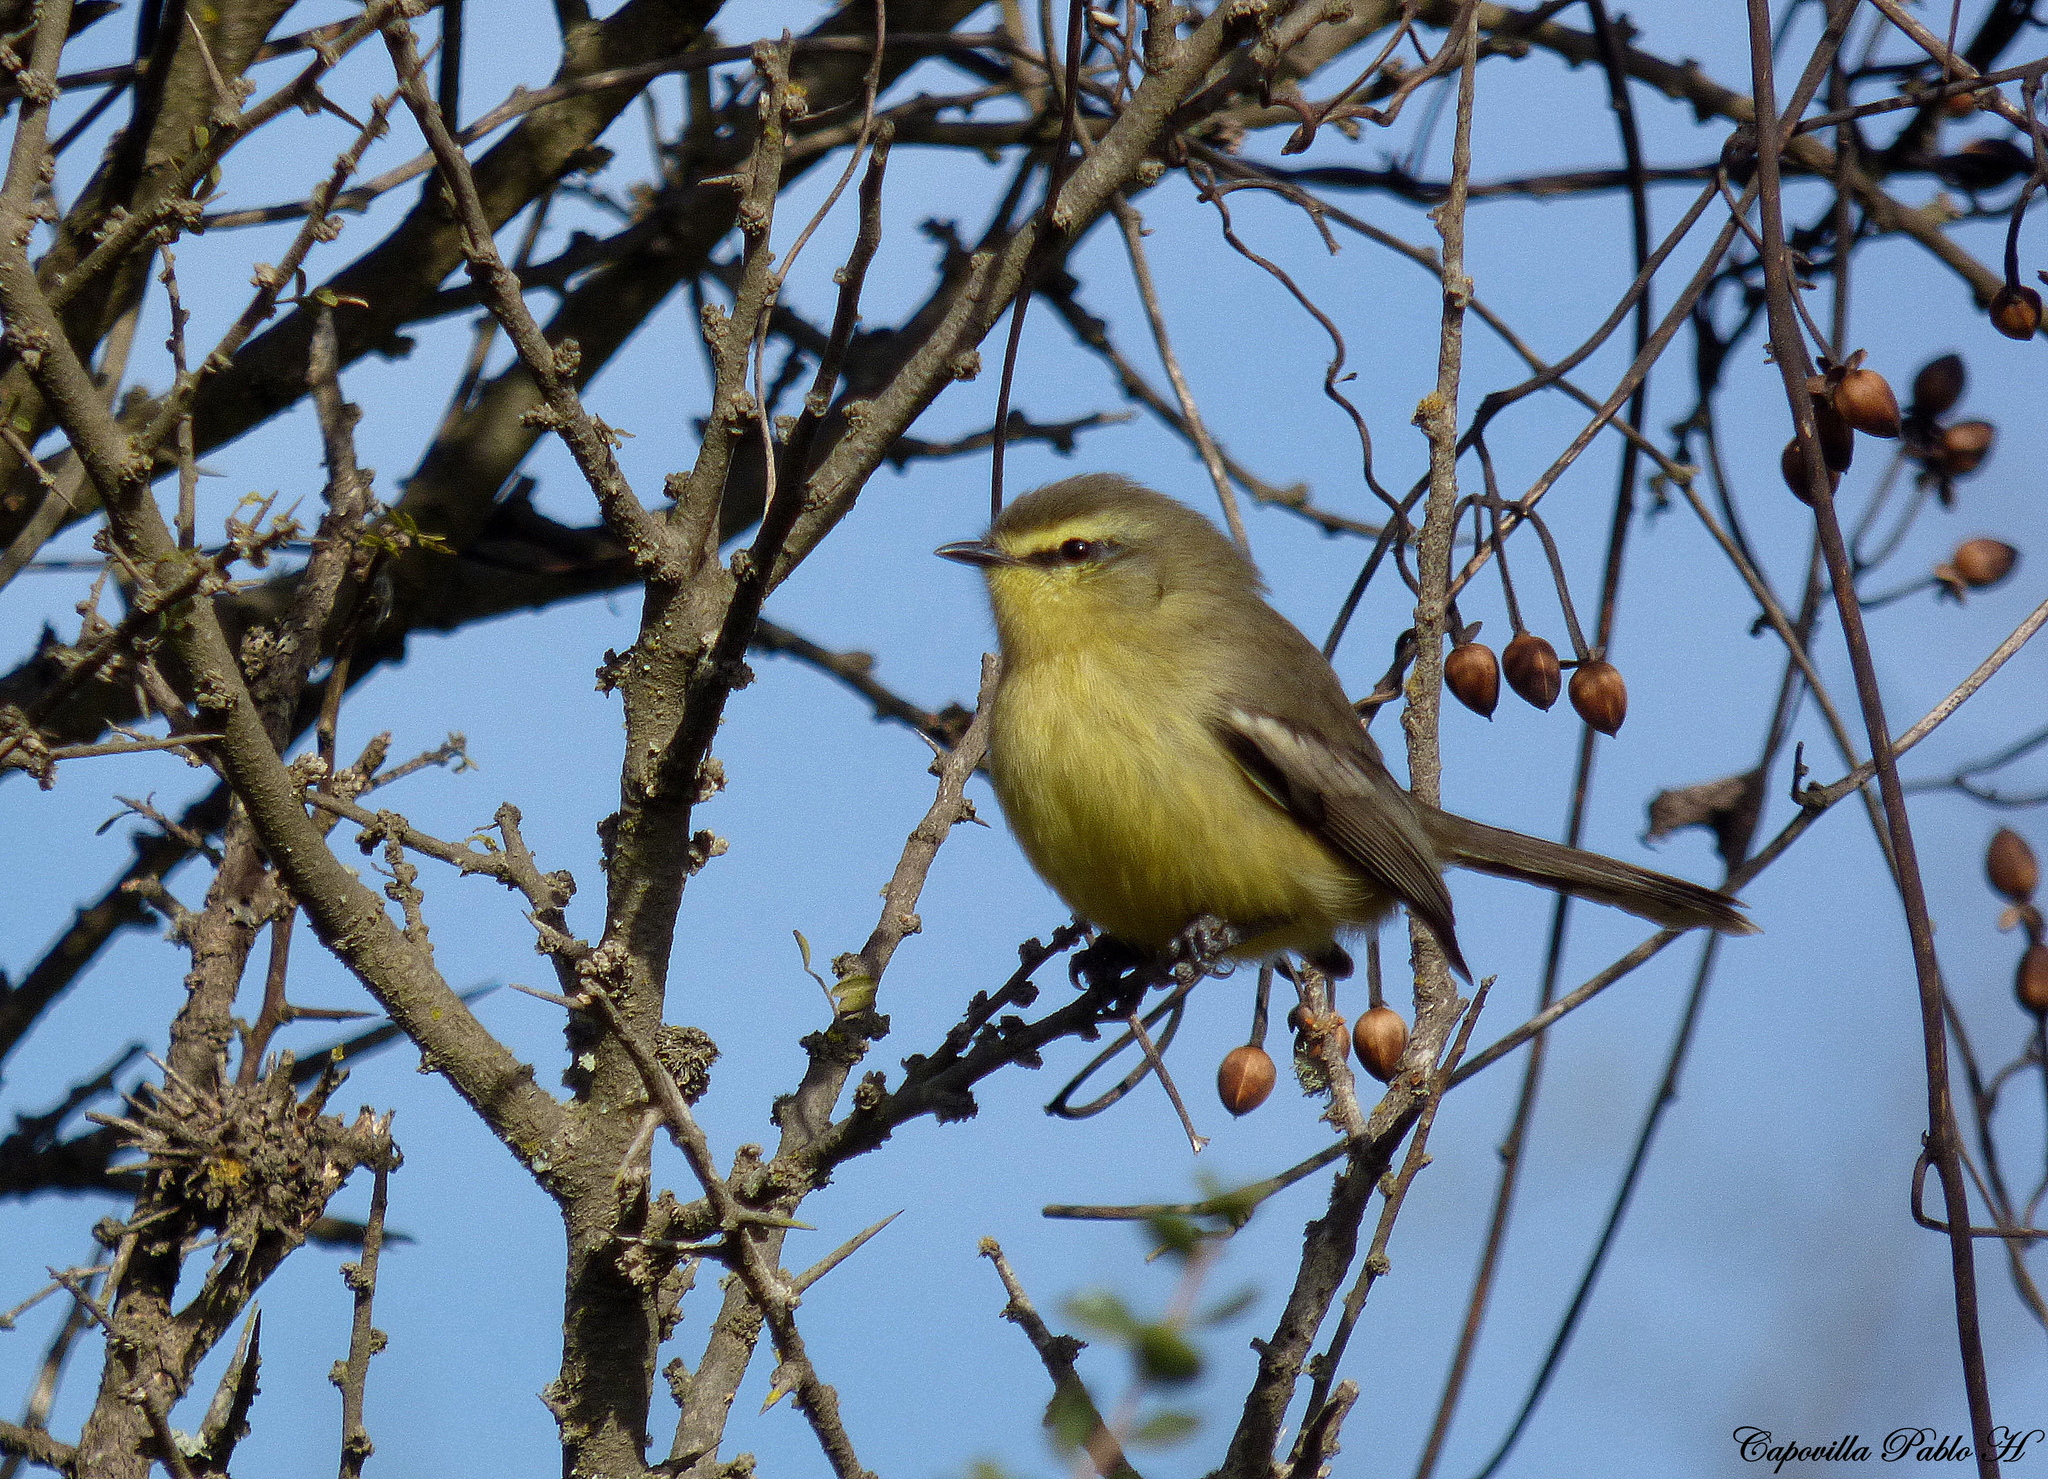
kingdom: Animalia
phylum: Chordata
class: Aves
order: Passeriformes
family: Tyrannidae
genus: Stigmatura
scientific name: Stigmatura budytoides
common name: Greater wagtail-tyrant
